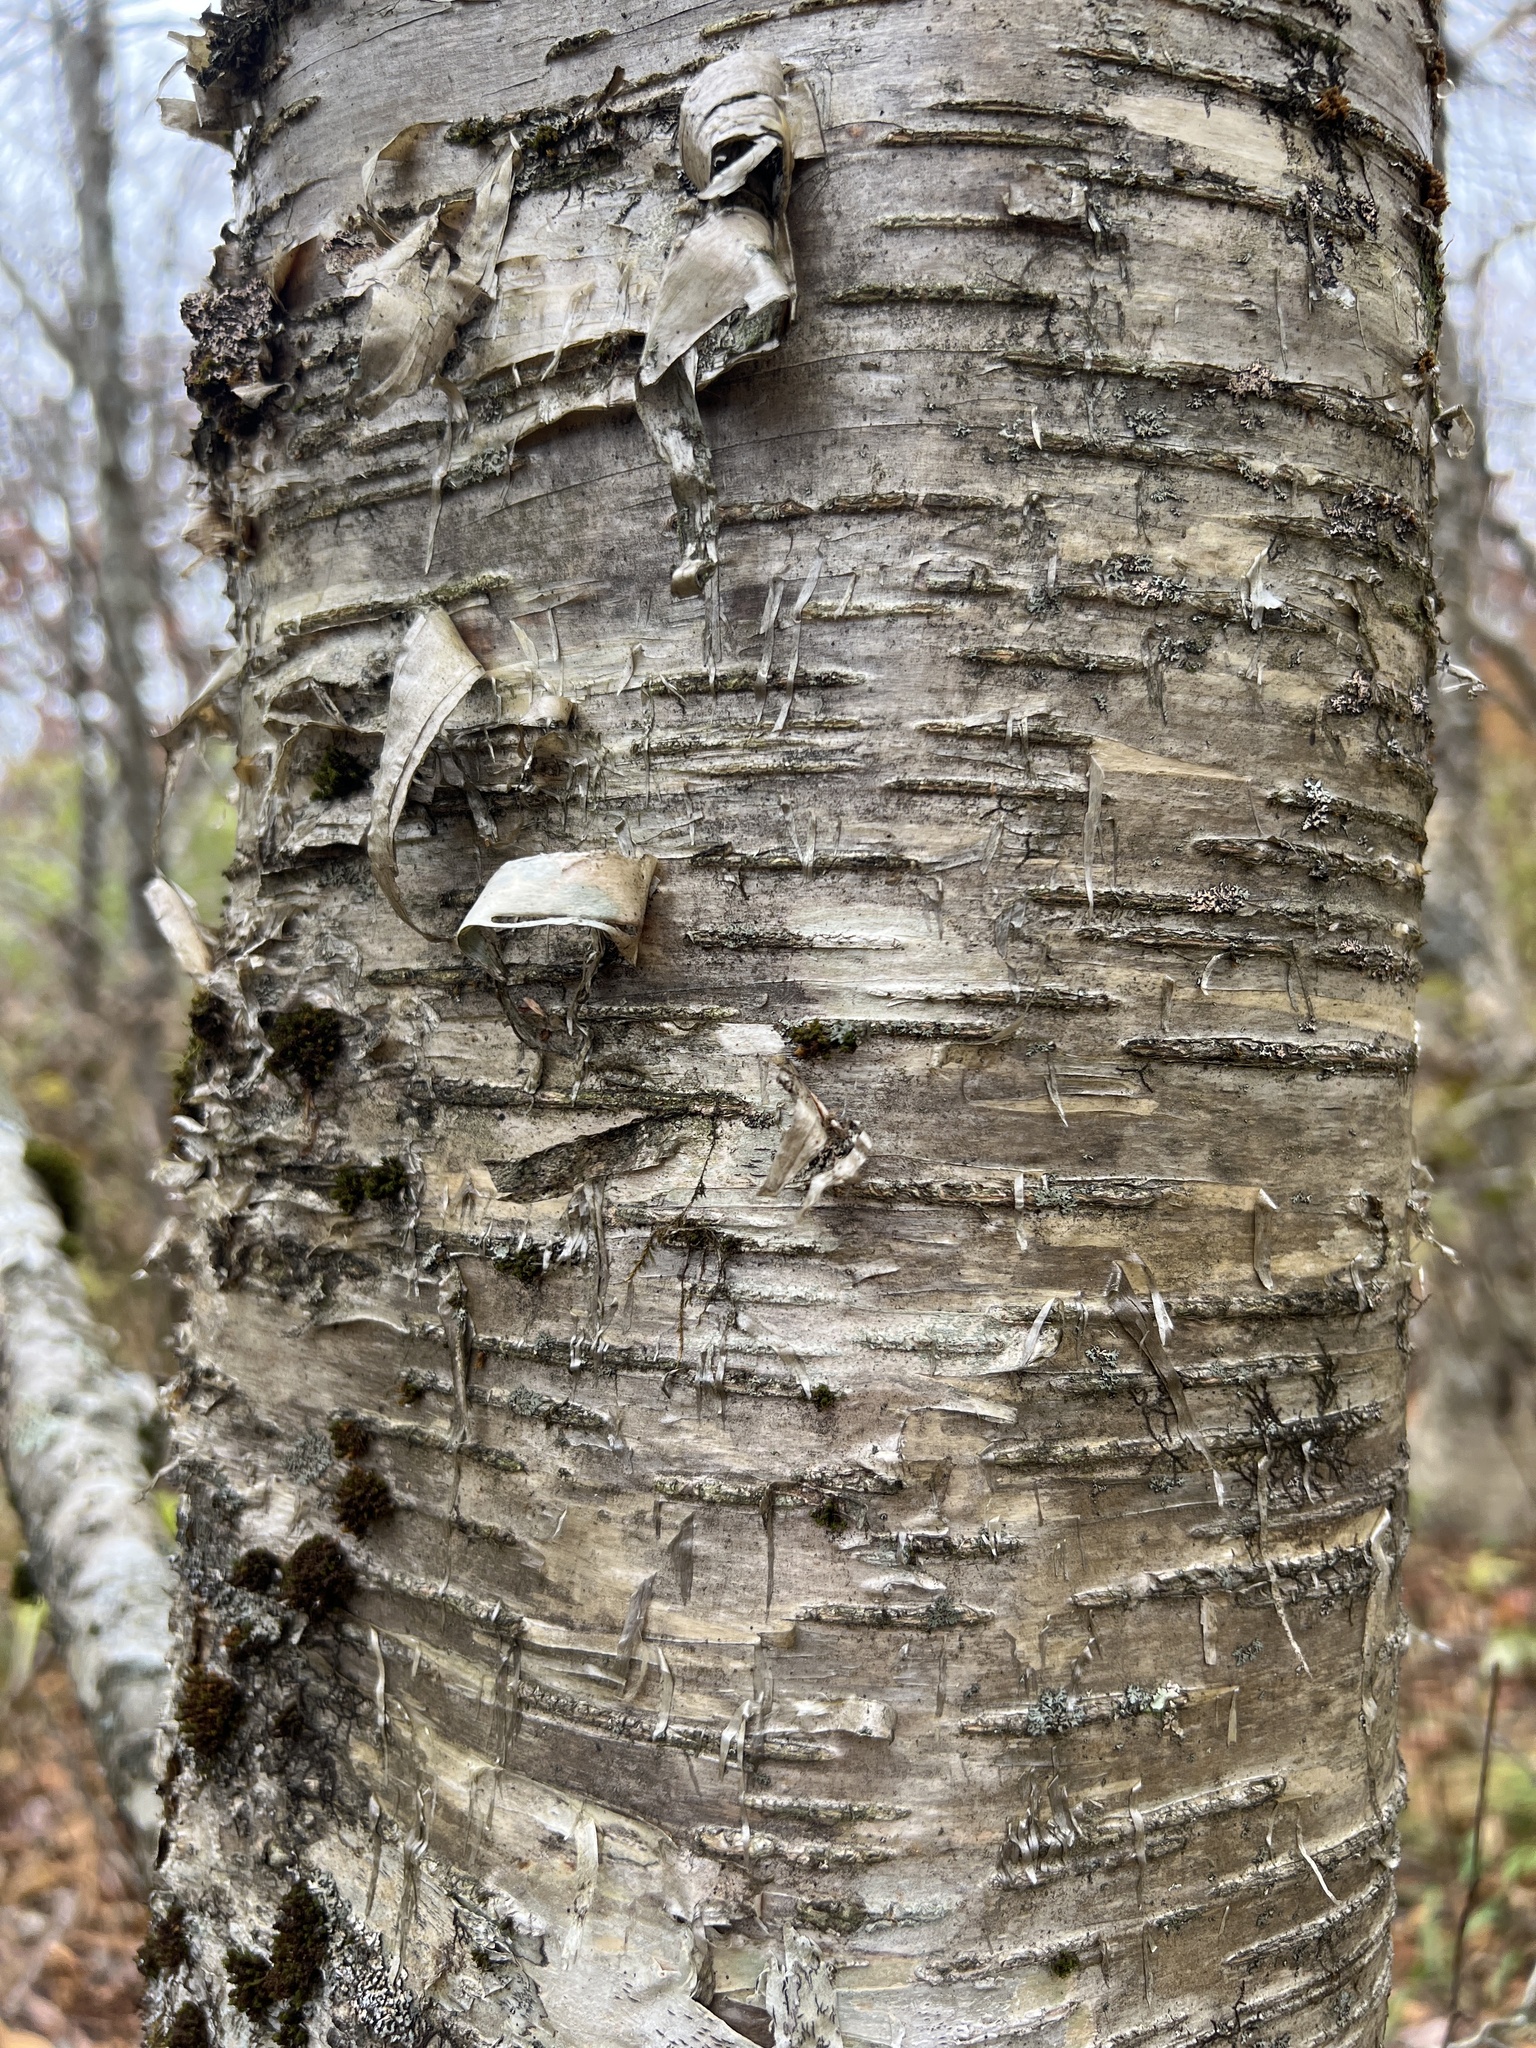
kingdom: Plantae
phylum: Tracheophyta
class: Magnoliopsida
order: Fagales
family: Betulaceae
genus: Betula
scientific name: Betula alleghaniensis
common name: Yellow birch
